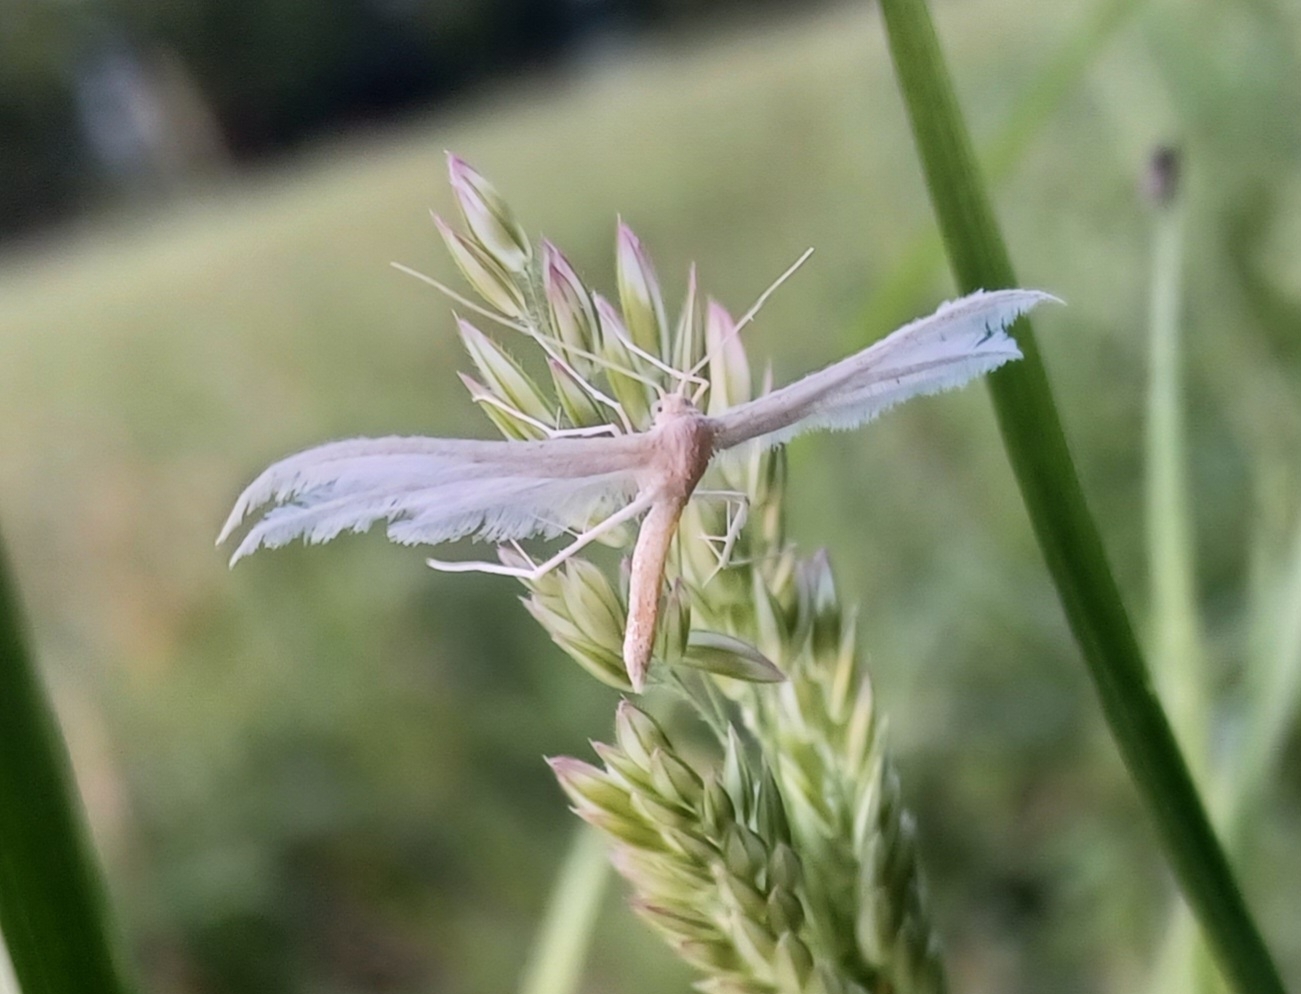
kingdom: Animalia
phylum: Arthropoda
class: Insecta
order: Lepidoptera
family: Pterophoridae
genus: Pterophorus
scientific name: Pterophorus pentadactyla
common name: White plume moth
